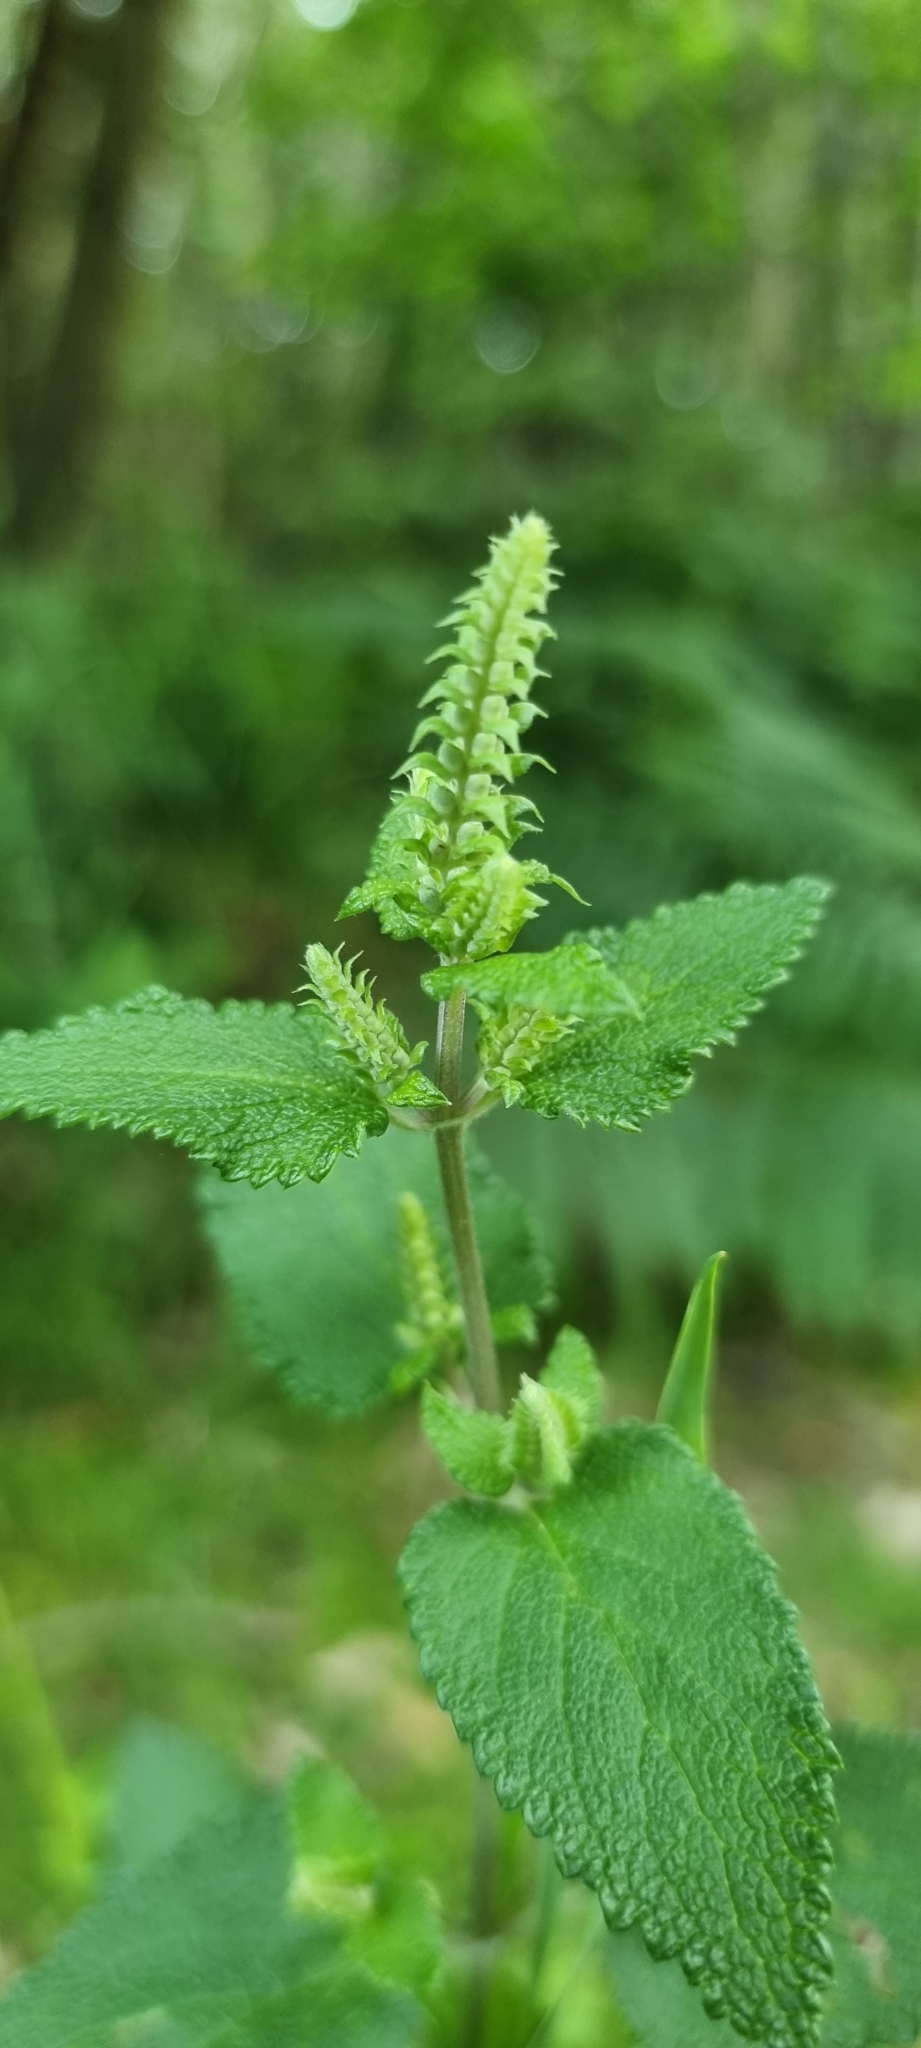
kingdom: Plantae
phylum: Tracheophyta
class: Magnoliopsida
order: Lamiales
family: Lamiaceae
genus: Teucrium
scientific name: Teucrium scorodonia
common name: Woodland germander
